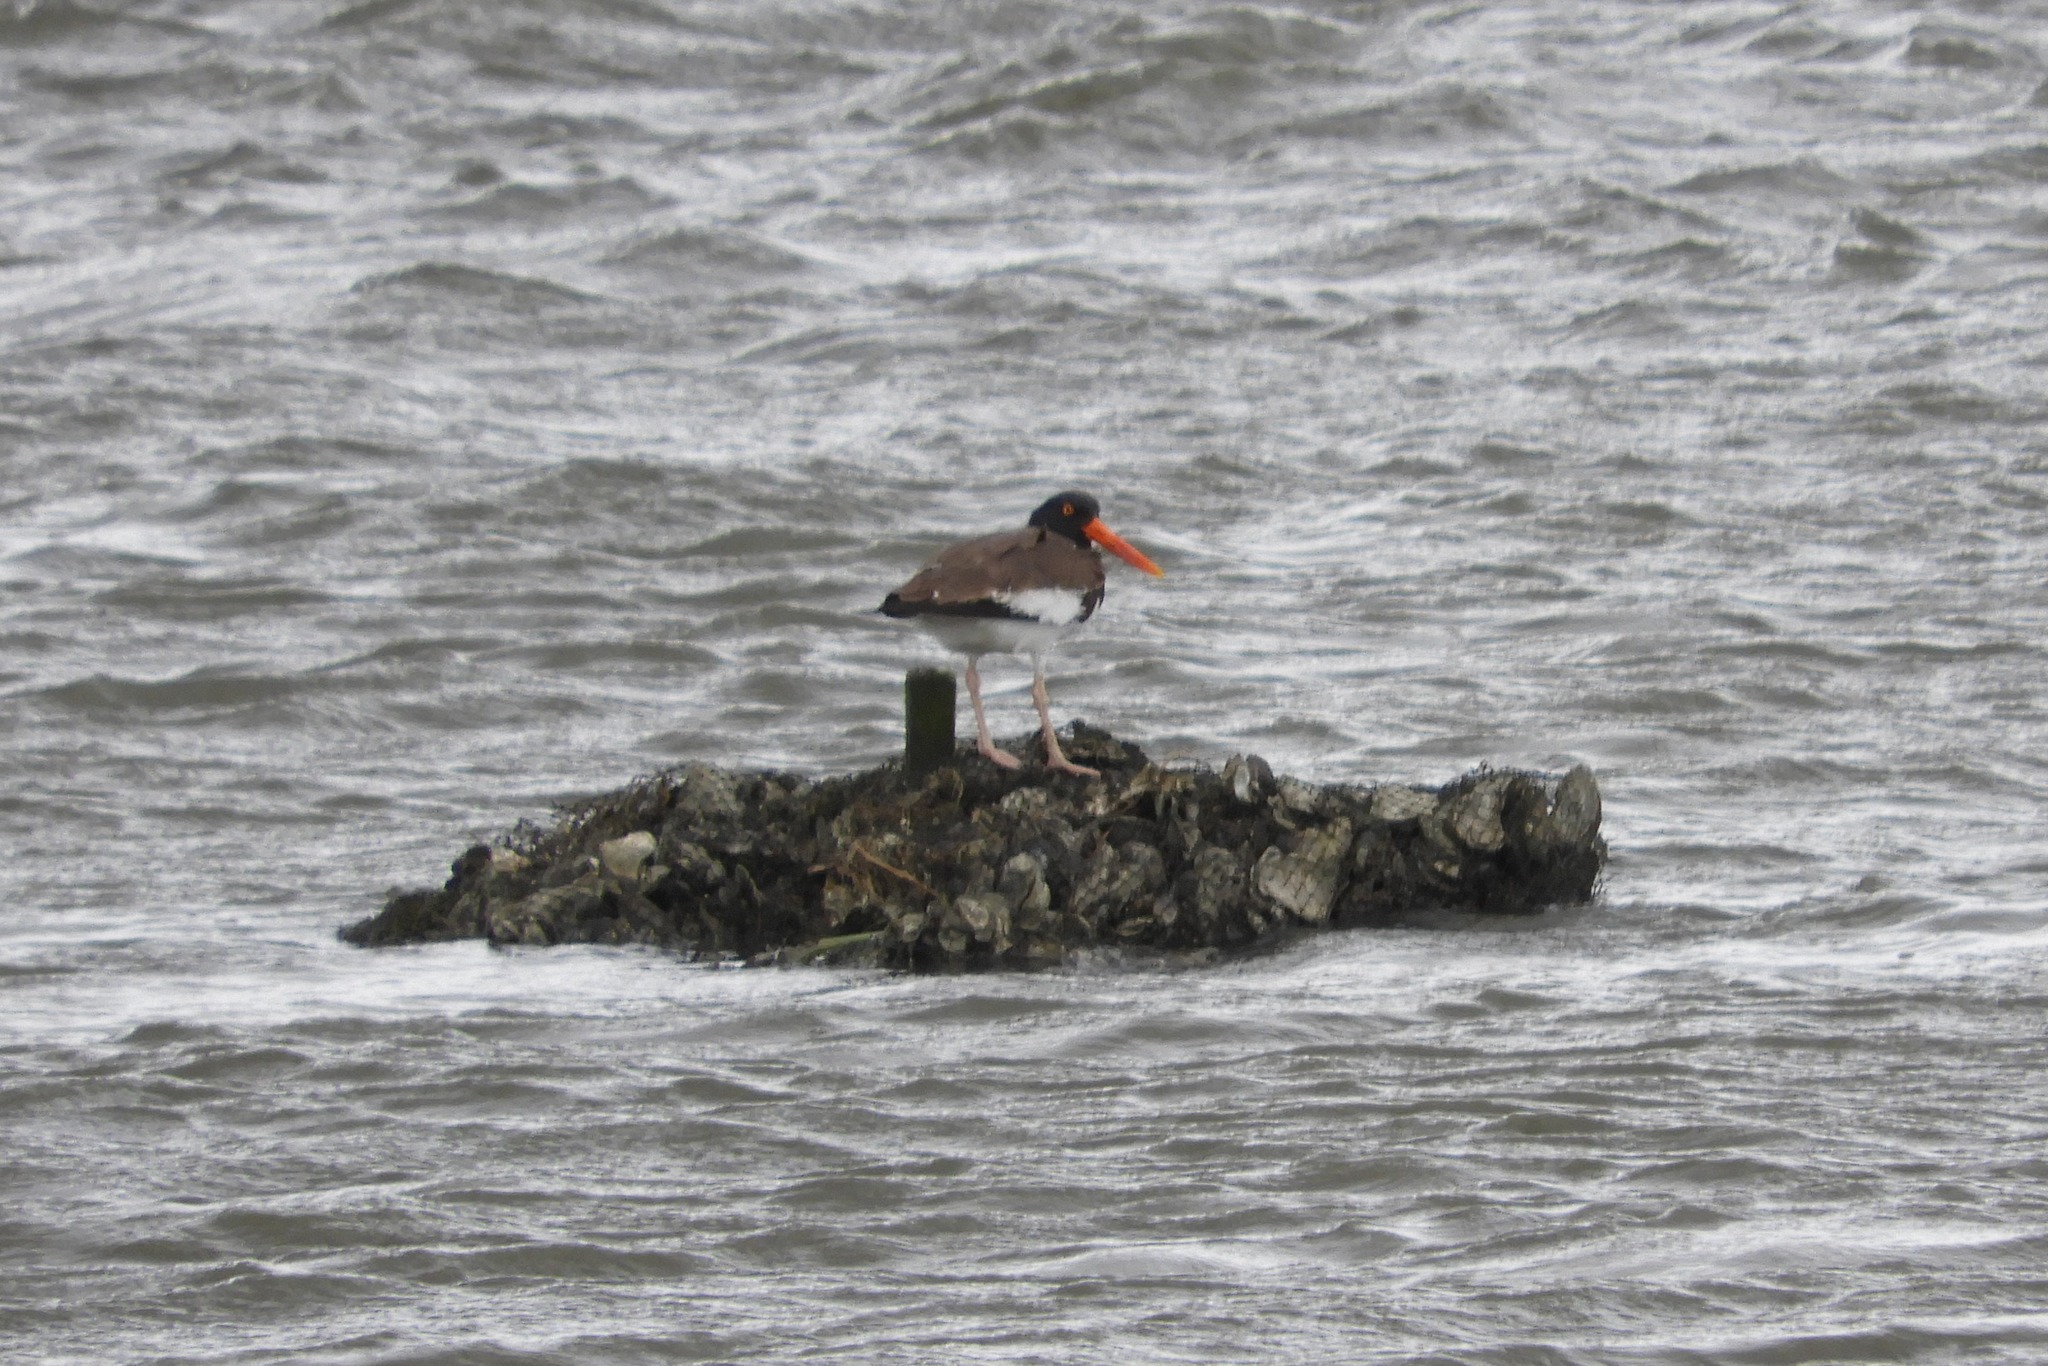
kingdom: Animalia
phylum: Chordata
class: Aves
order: Charadriiformes
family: Haematopodidae
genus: Haematopus
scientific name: Haematopus palliatus
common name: American oystercatcher
